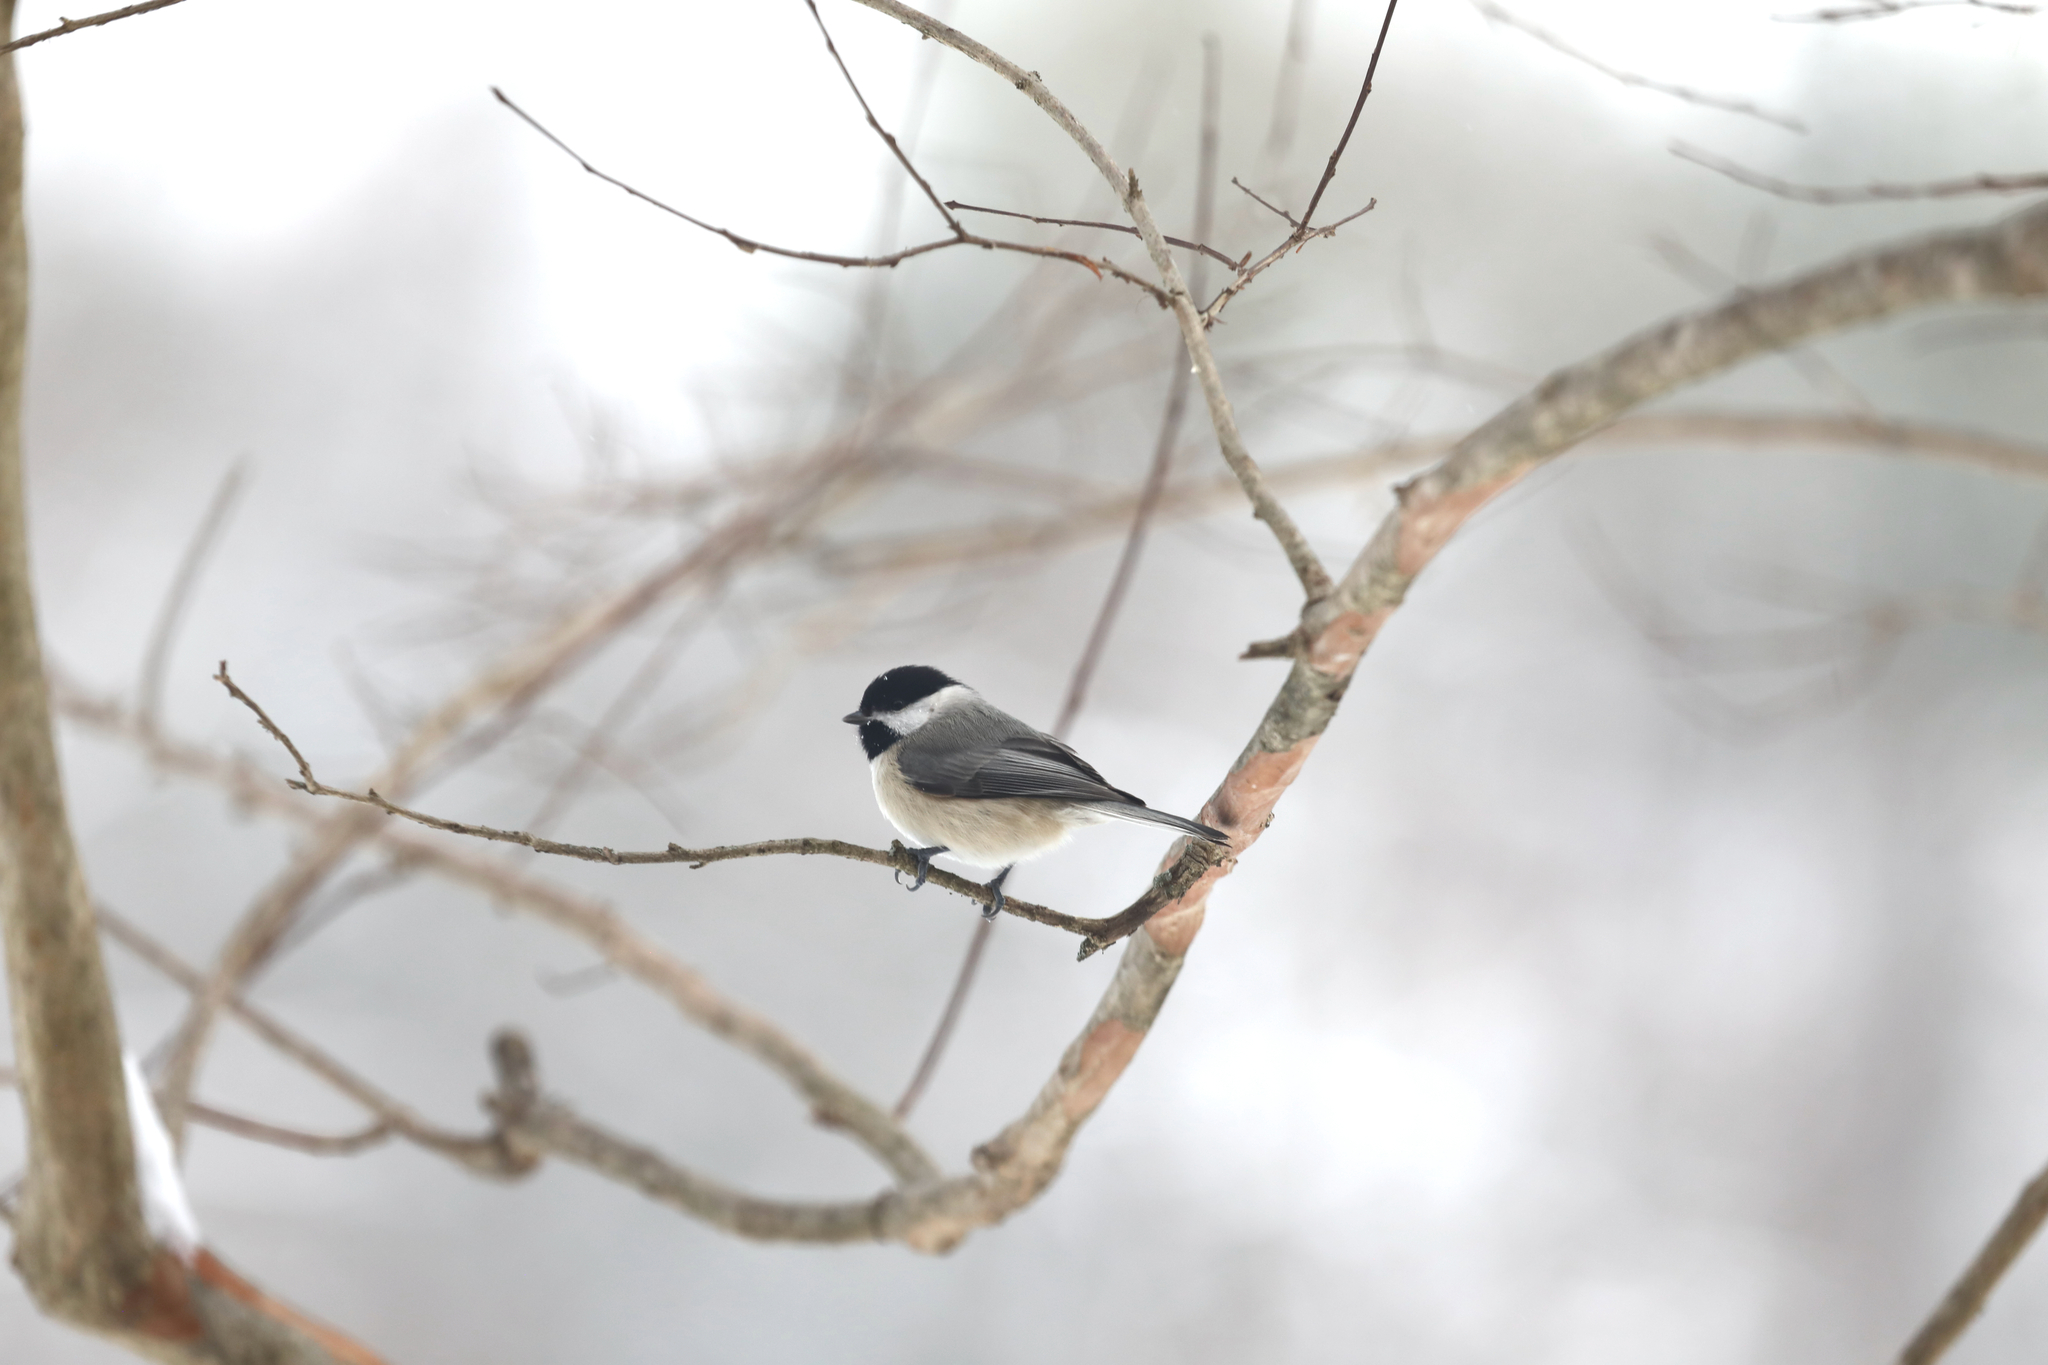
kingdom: Animalia
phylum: Chordata
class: Aves
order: Passeriformes
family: Paridae
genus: Poecile
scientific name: Poecile carolinensis
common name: Carolina chickadee
